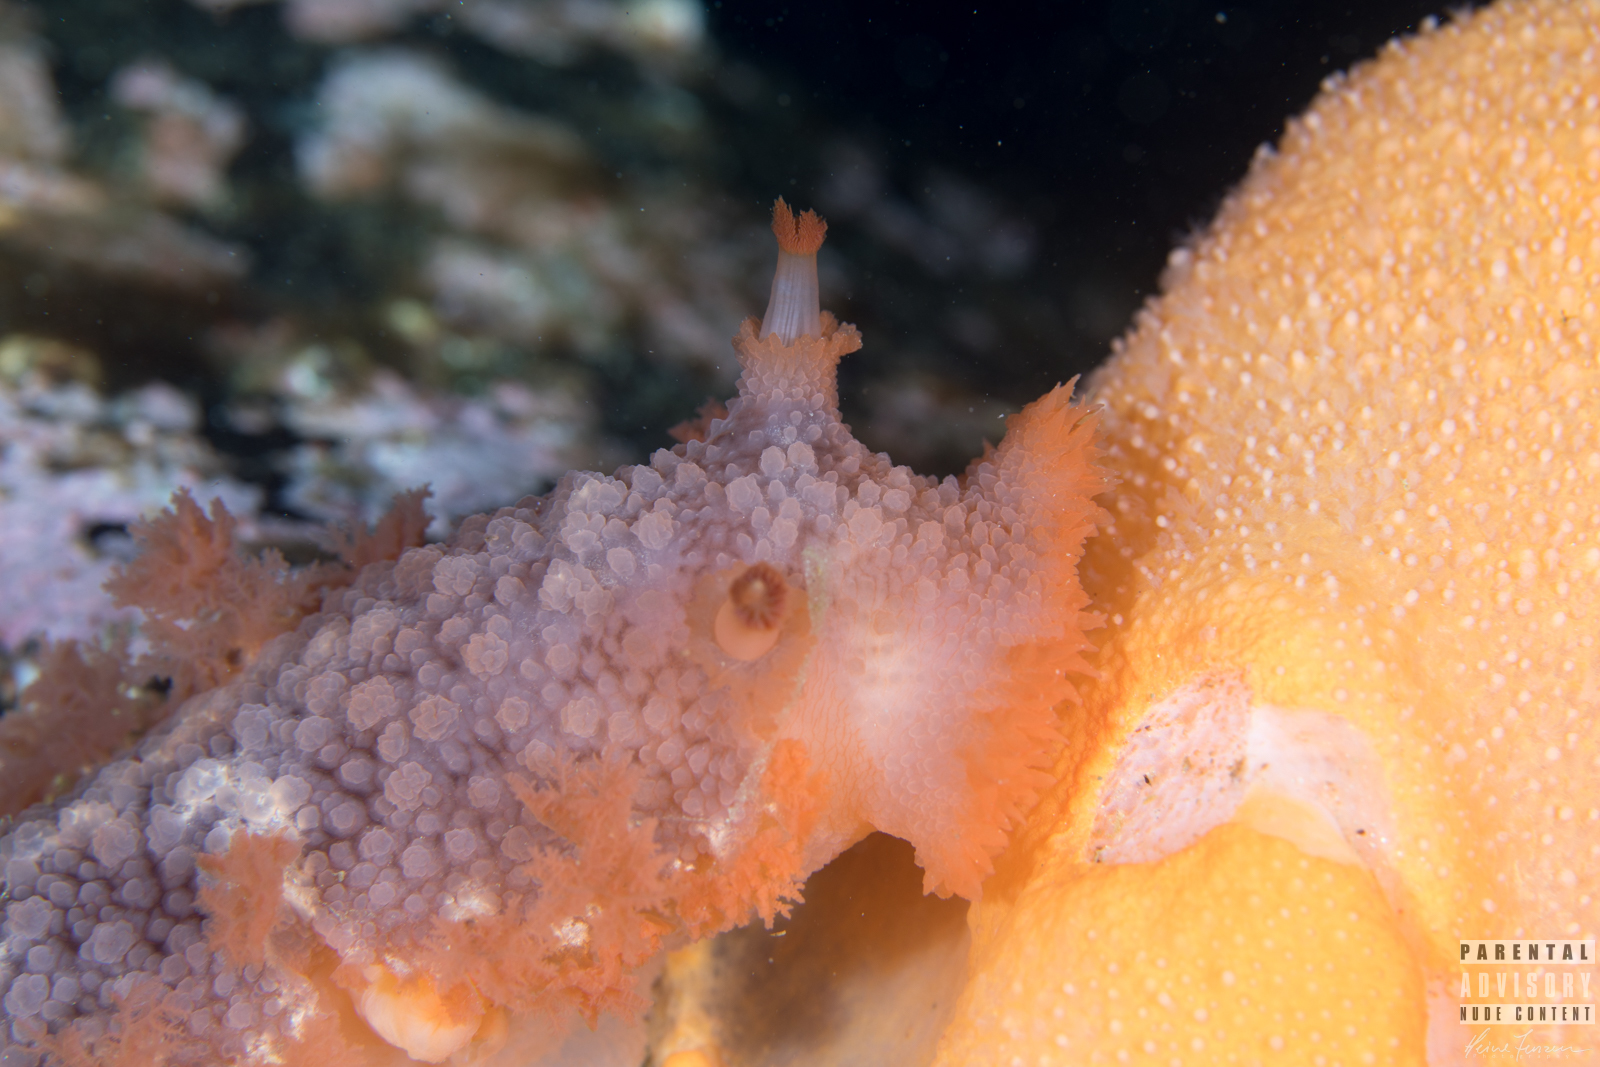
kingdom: Animalia
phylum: Mollusca
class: Gastropoda
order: Nudibranchia
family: Tritoniidae
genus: Tritonia
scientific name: Tritonia hombergii
